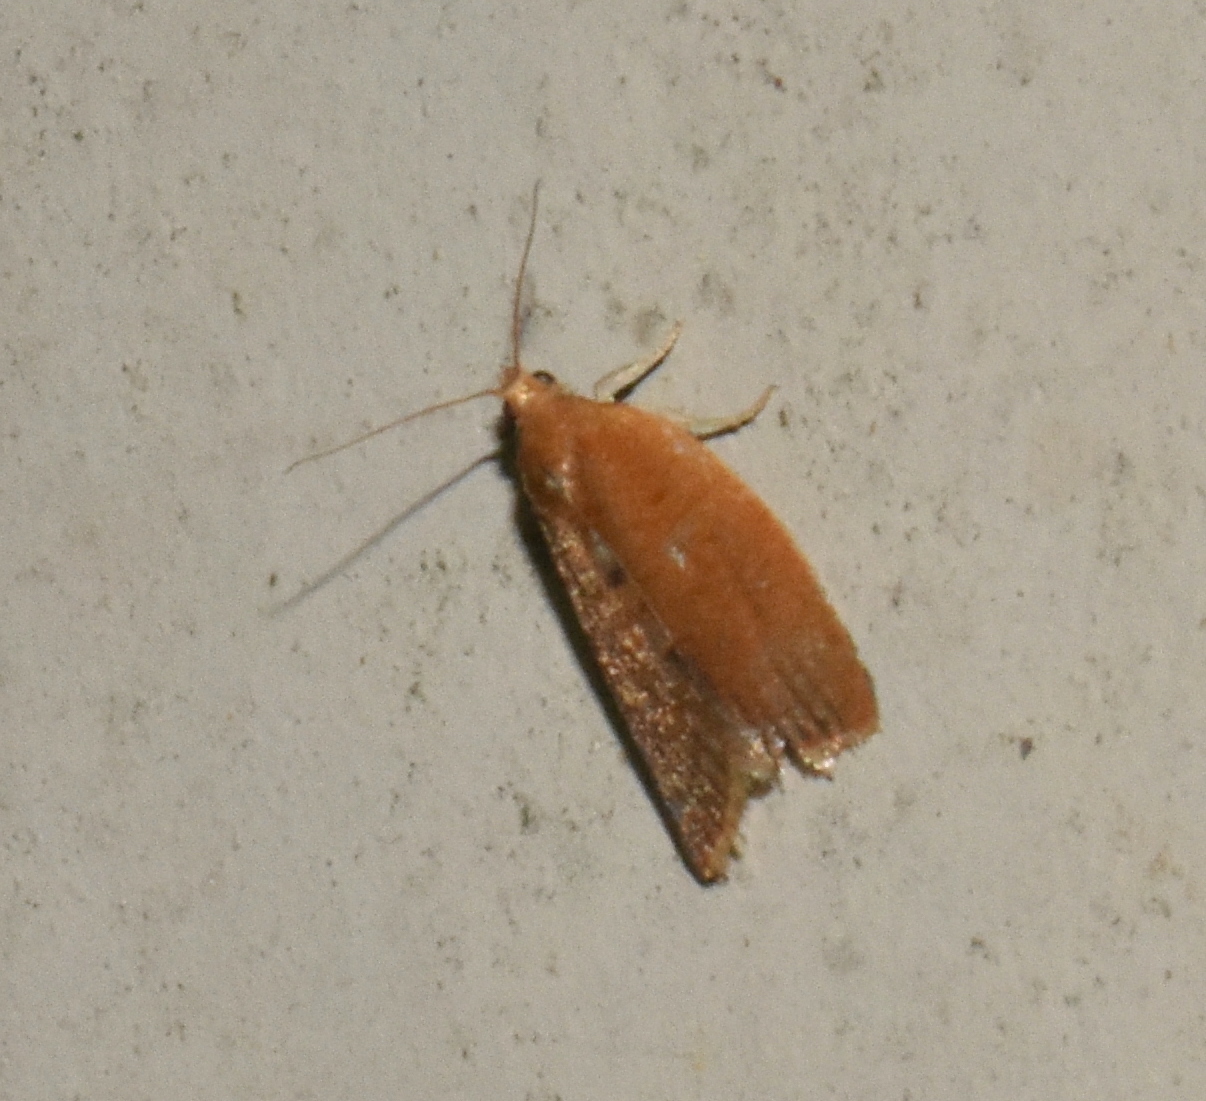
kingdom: Animalia
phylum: Arthropoda
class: Insecta
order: Lepidoptera
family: Tortricidae
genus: Clepsis
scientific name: Clepsis consimilana
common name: Privet tortrix
